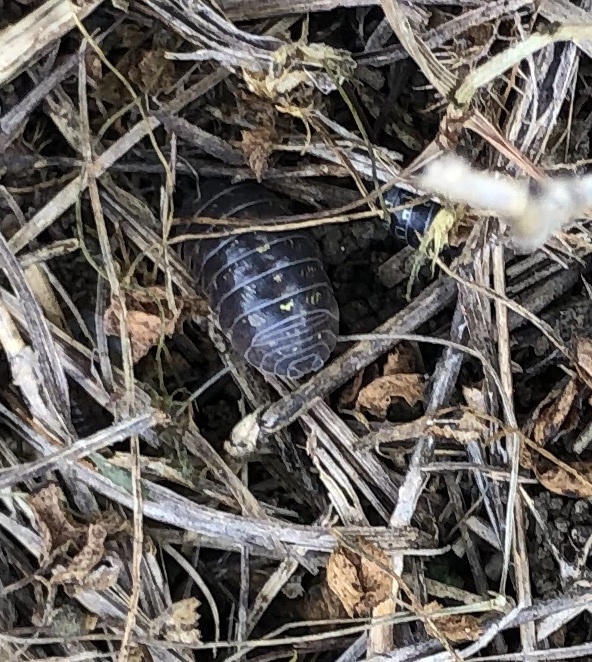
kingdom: Animalia
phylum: Arthropoda
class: Malacostraca
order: Isopoda
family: Armadillidiidae
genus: Armadillidium
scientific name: Armadillidium vulgare
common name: Common pill woodlouse
